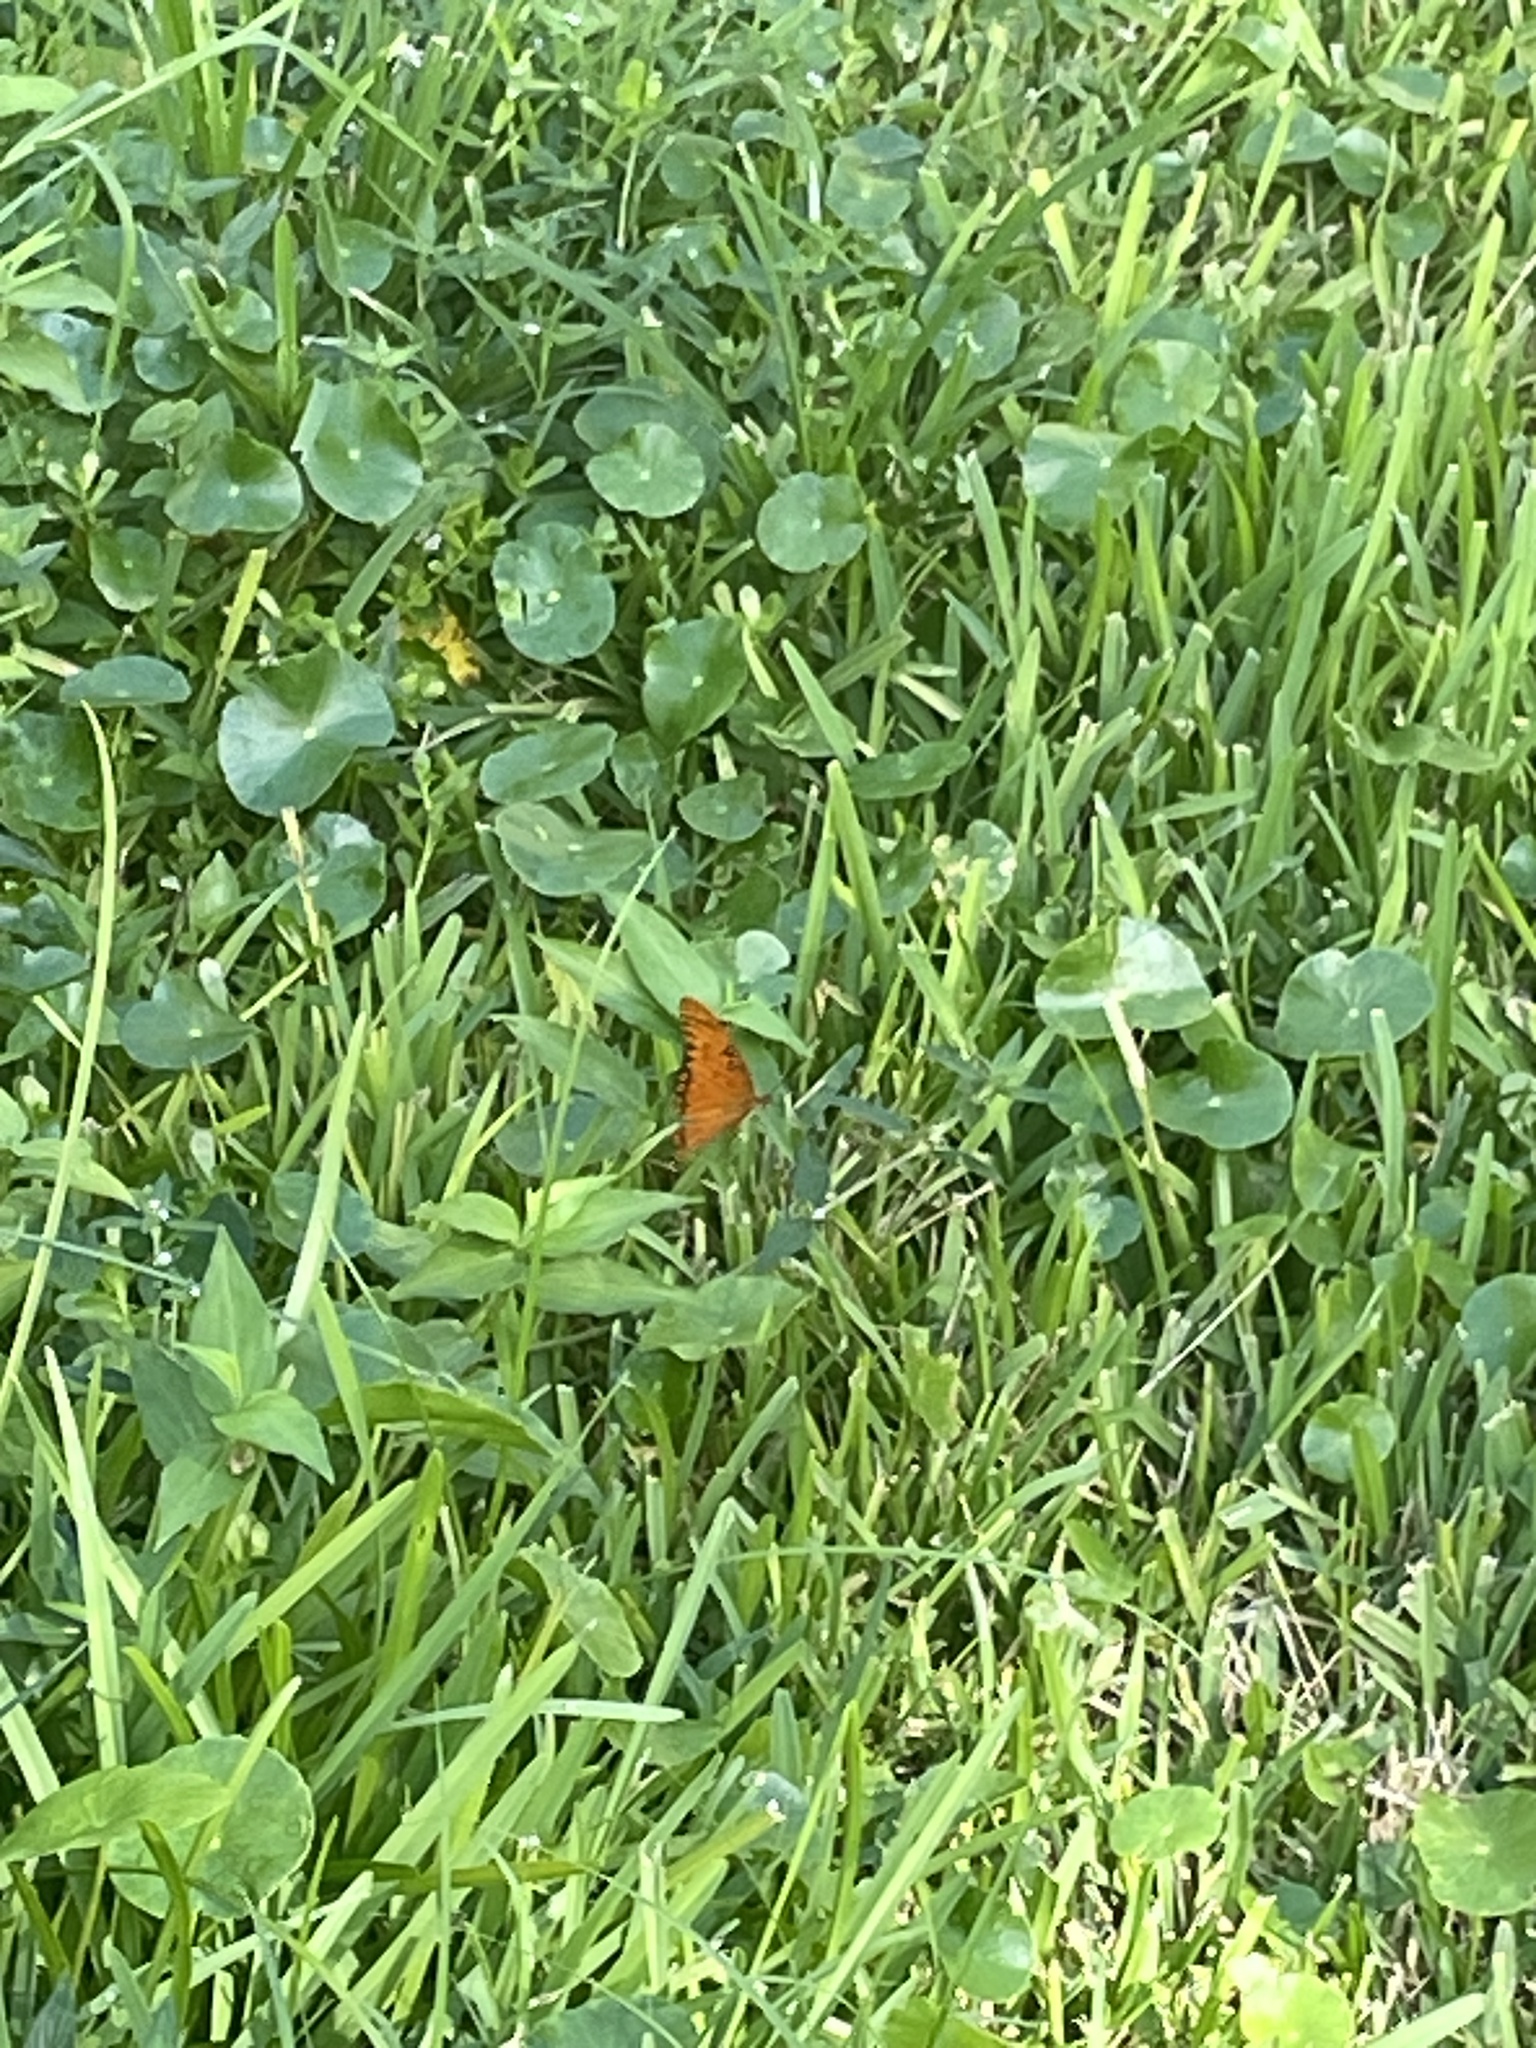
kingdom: Animalia
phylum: Arthropoda
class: Insecta
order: Lepidoptera
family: Nymphalidae
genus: Dione
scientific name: Dione vanillae
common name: Gulf fritillary
